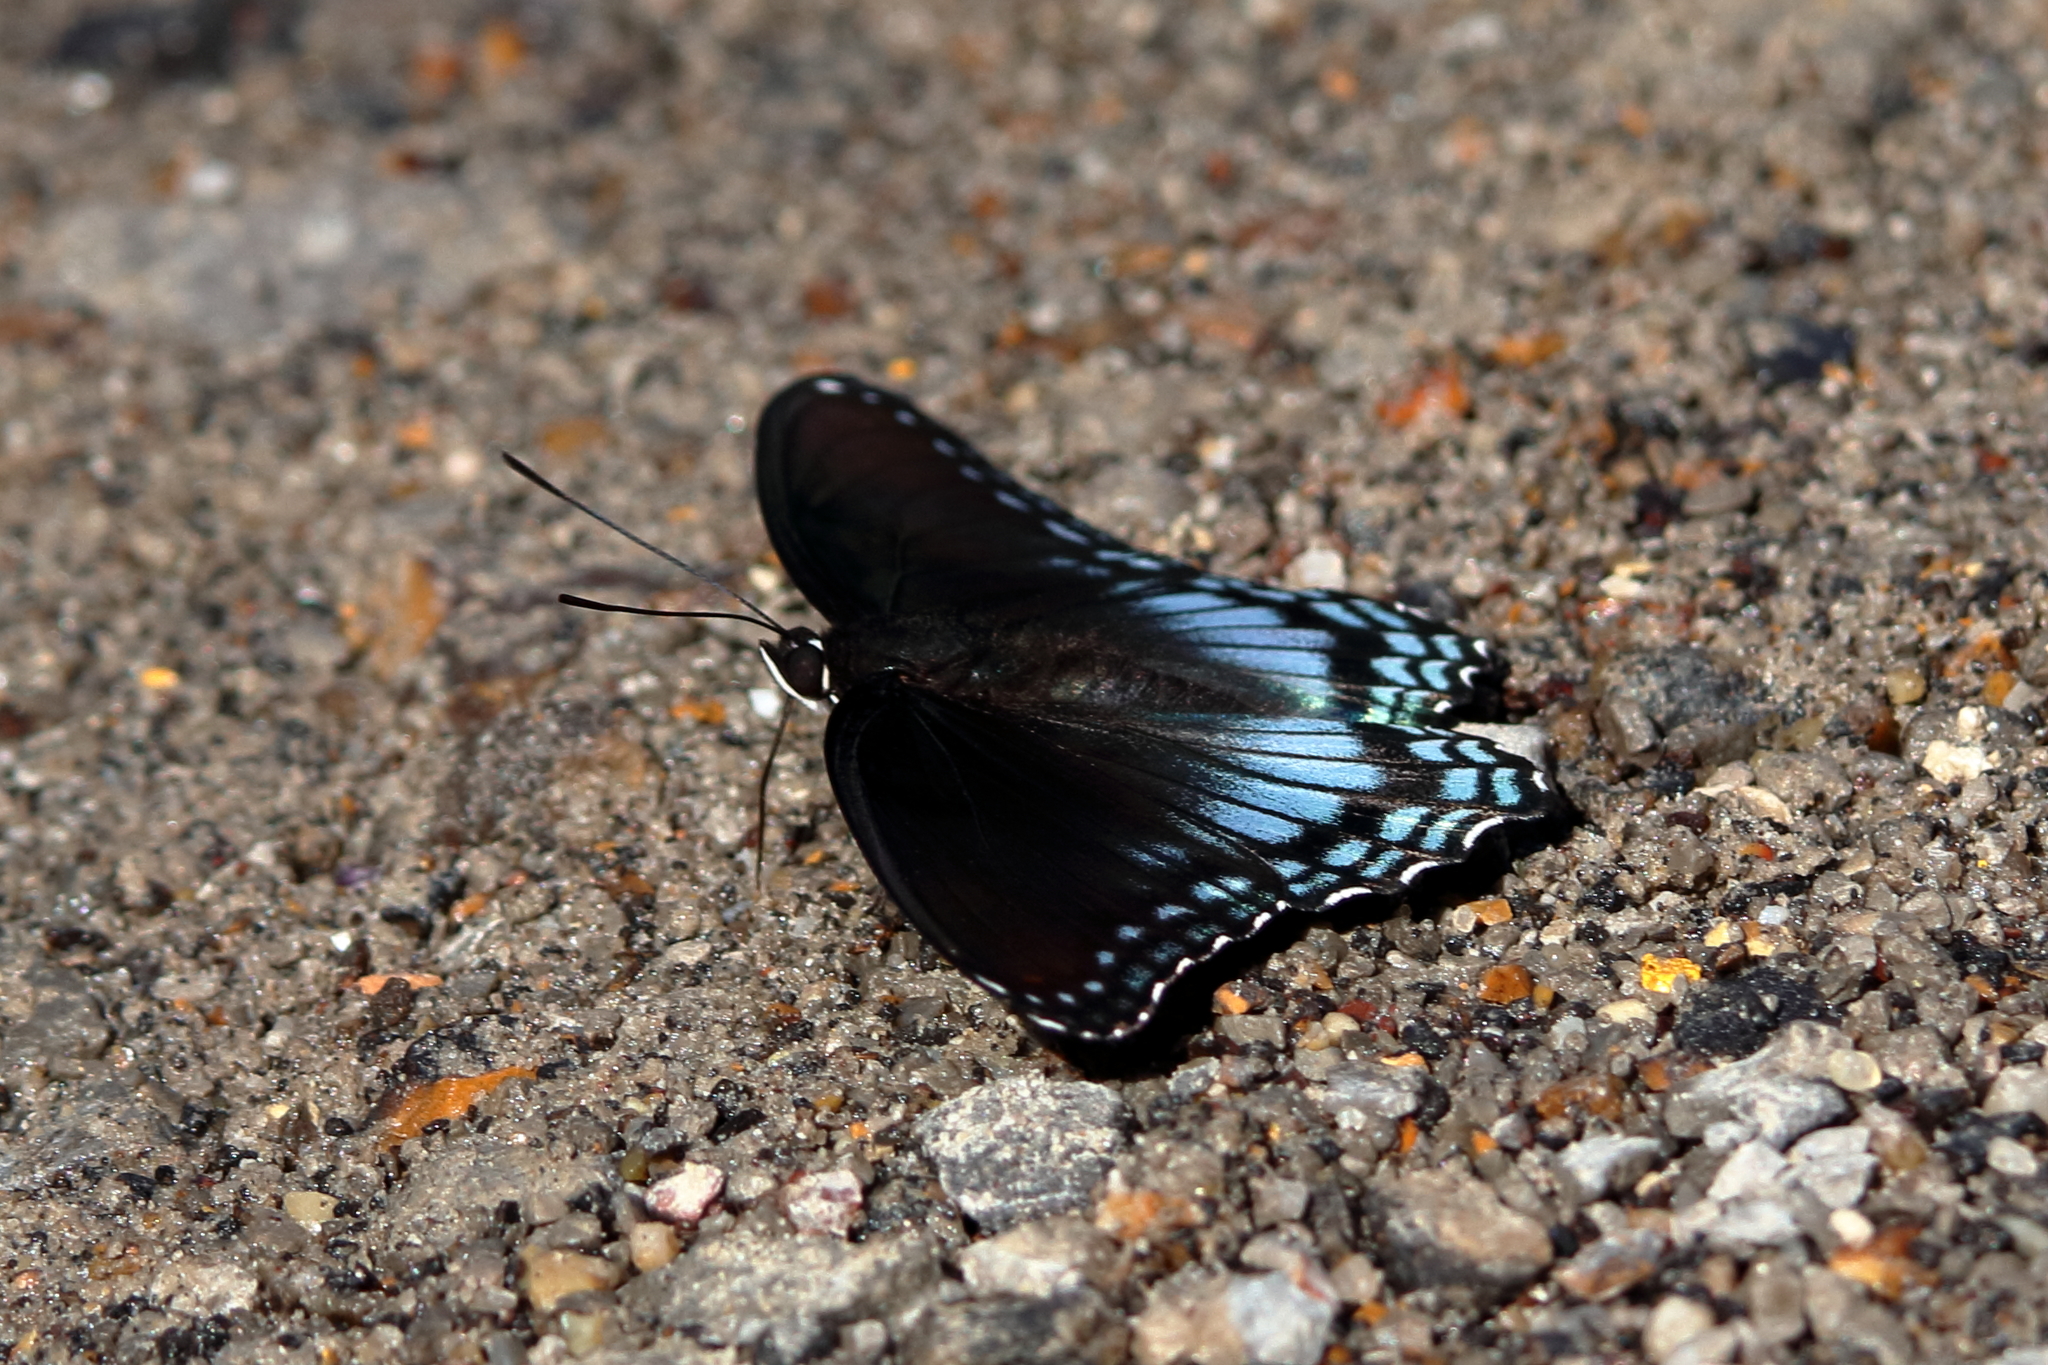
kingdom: Animalia
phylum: Arthropoda
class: Insecta
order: Lepidoptera
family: Nymphalidae
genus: Limenitis
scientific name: Limenitis astyanax
